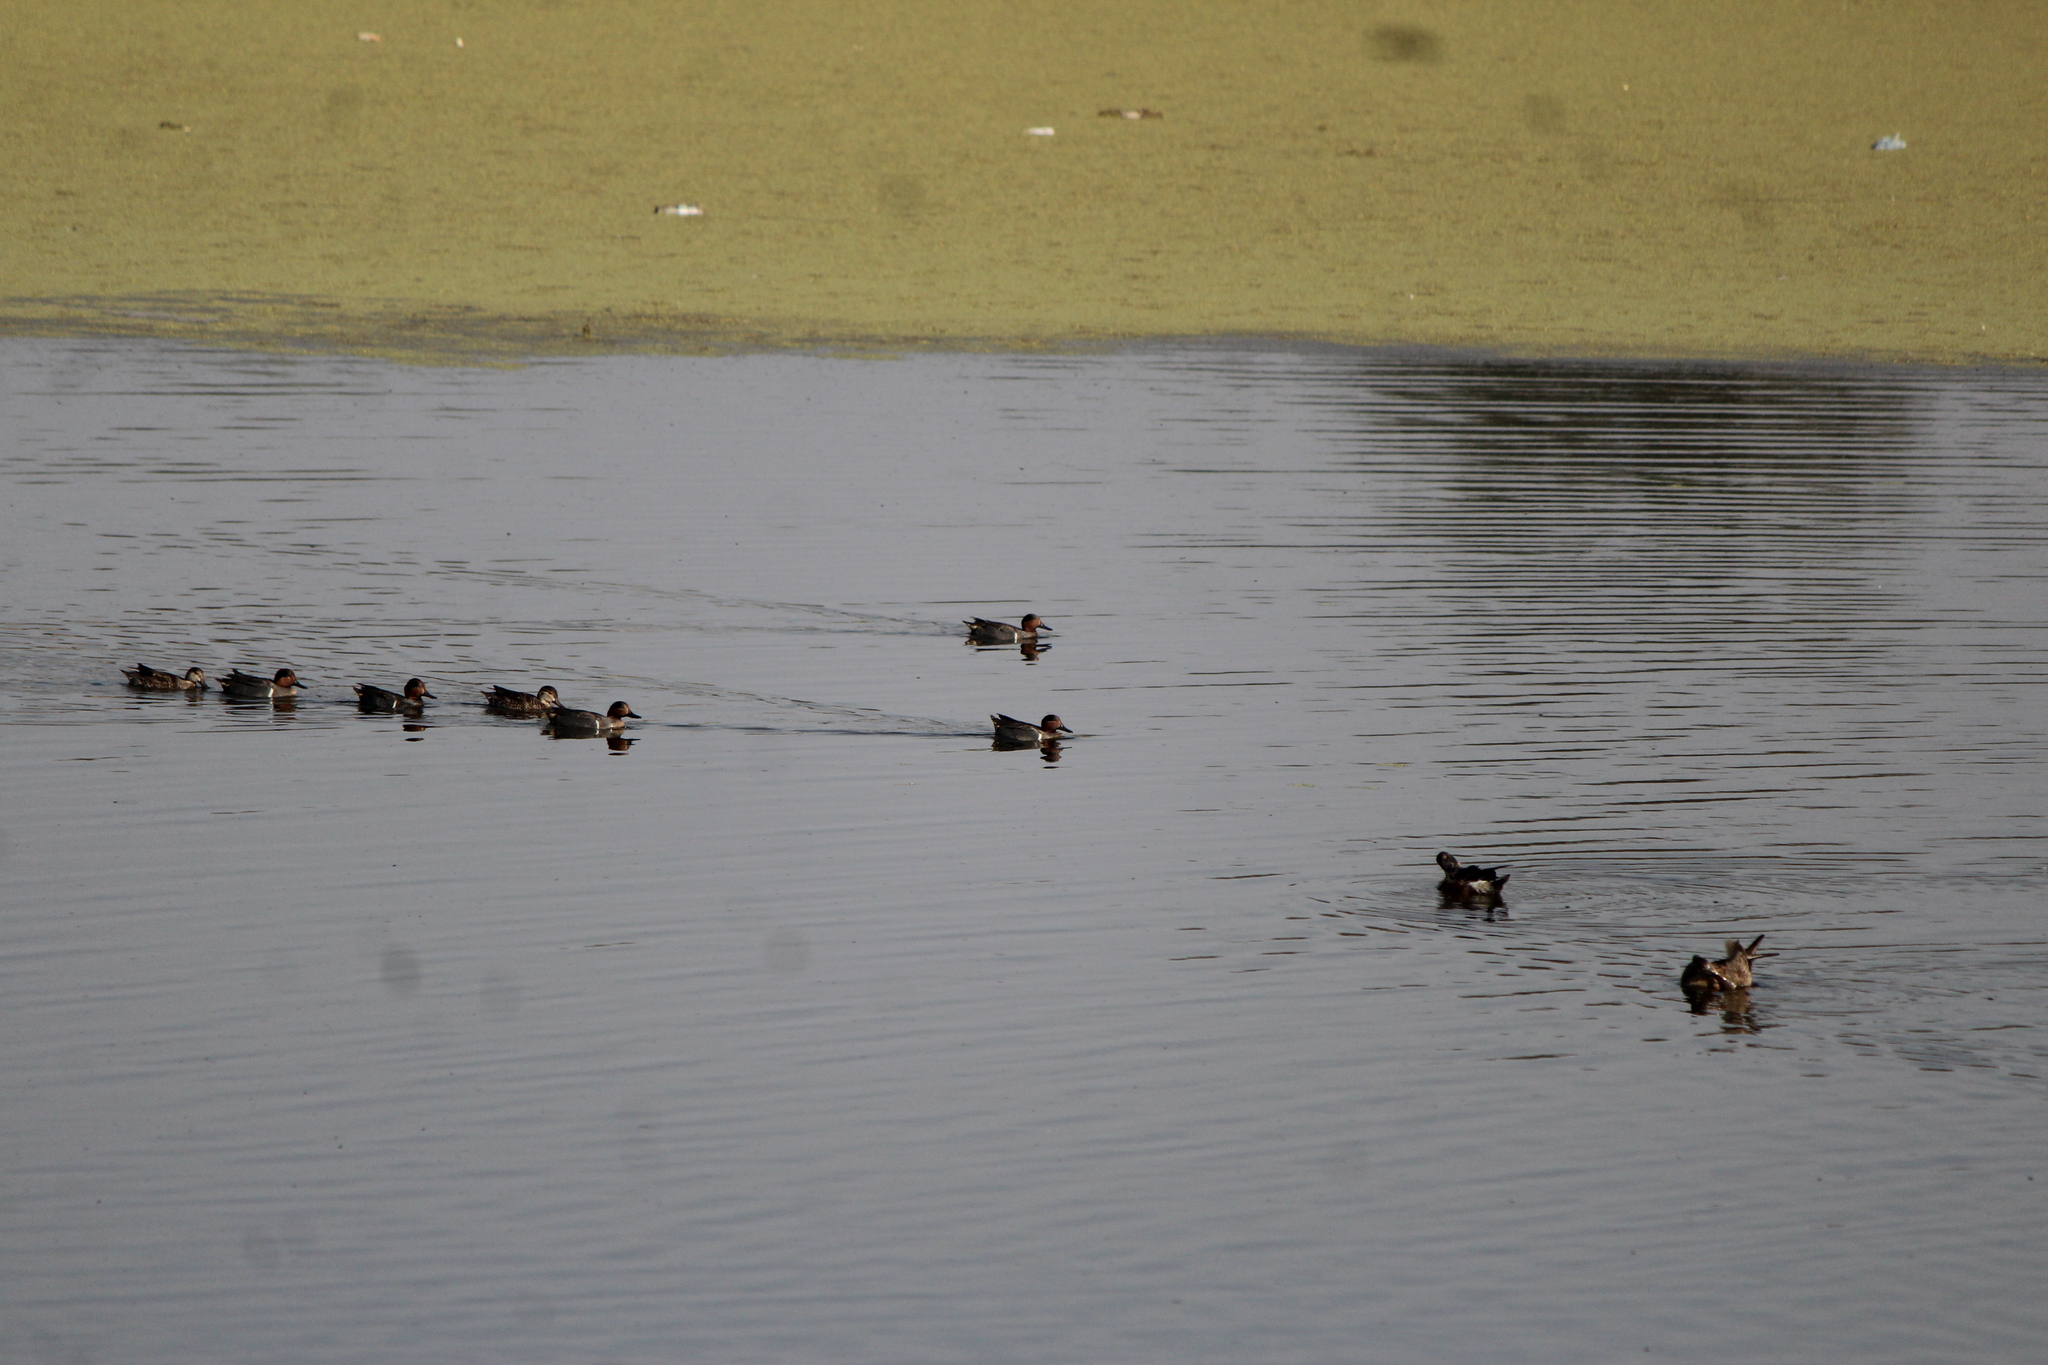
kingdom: Animalia
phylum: Chordata
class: Aves
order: Anseriformes
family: Anatidae
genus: Anas
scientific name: Anas crecca
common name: Eurasian teal
